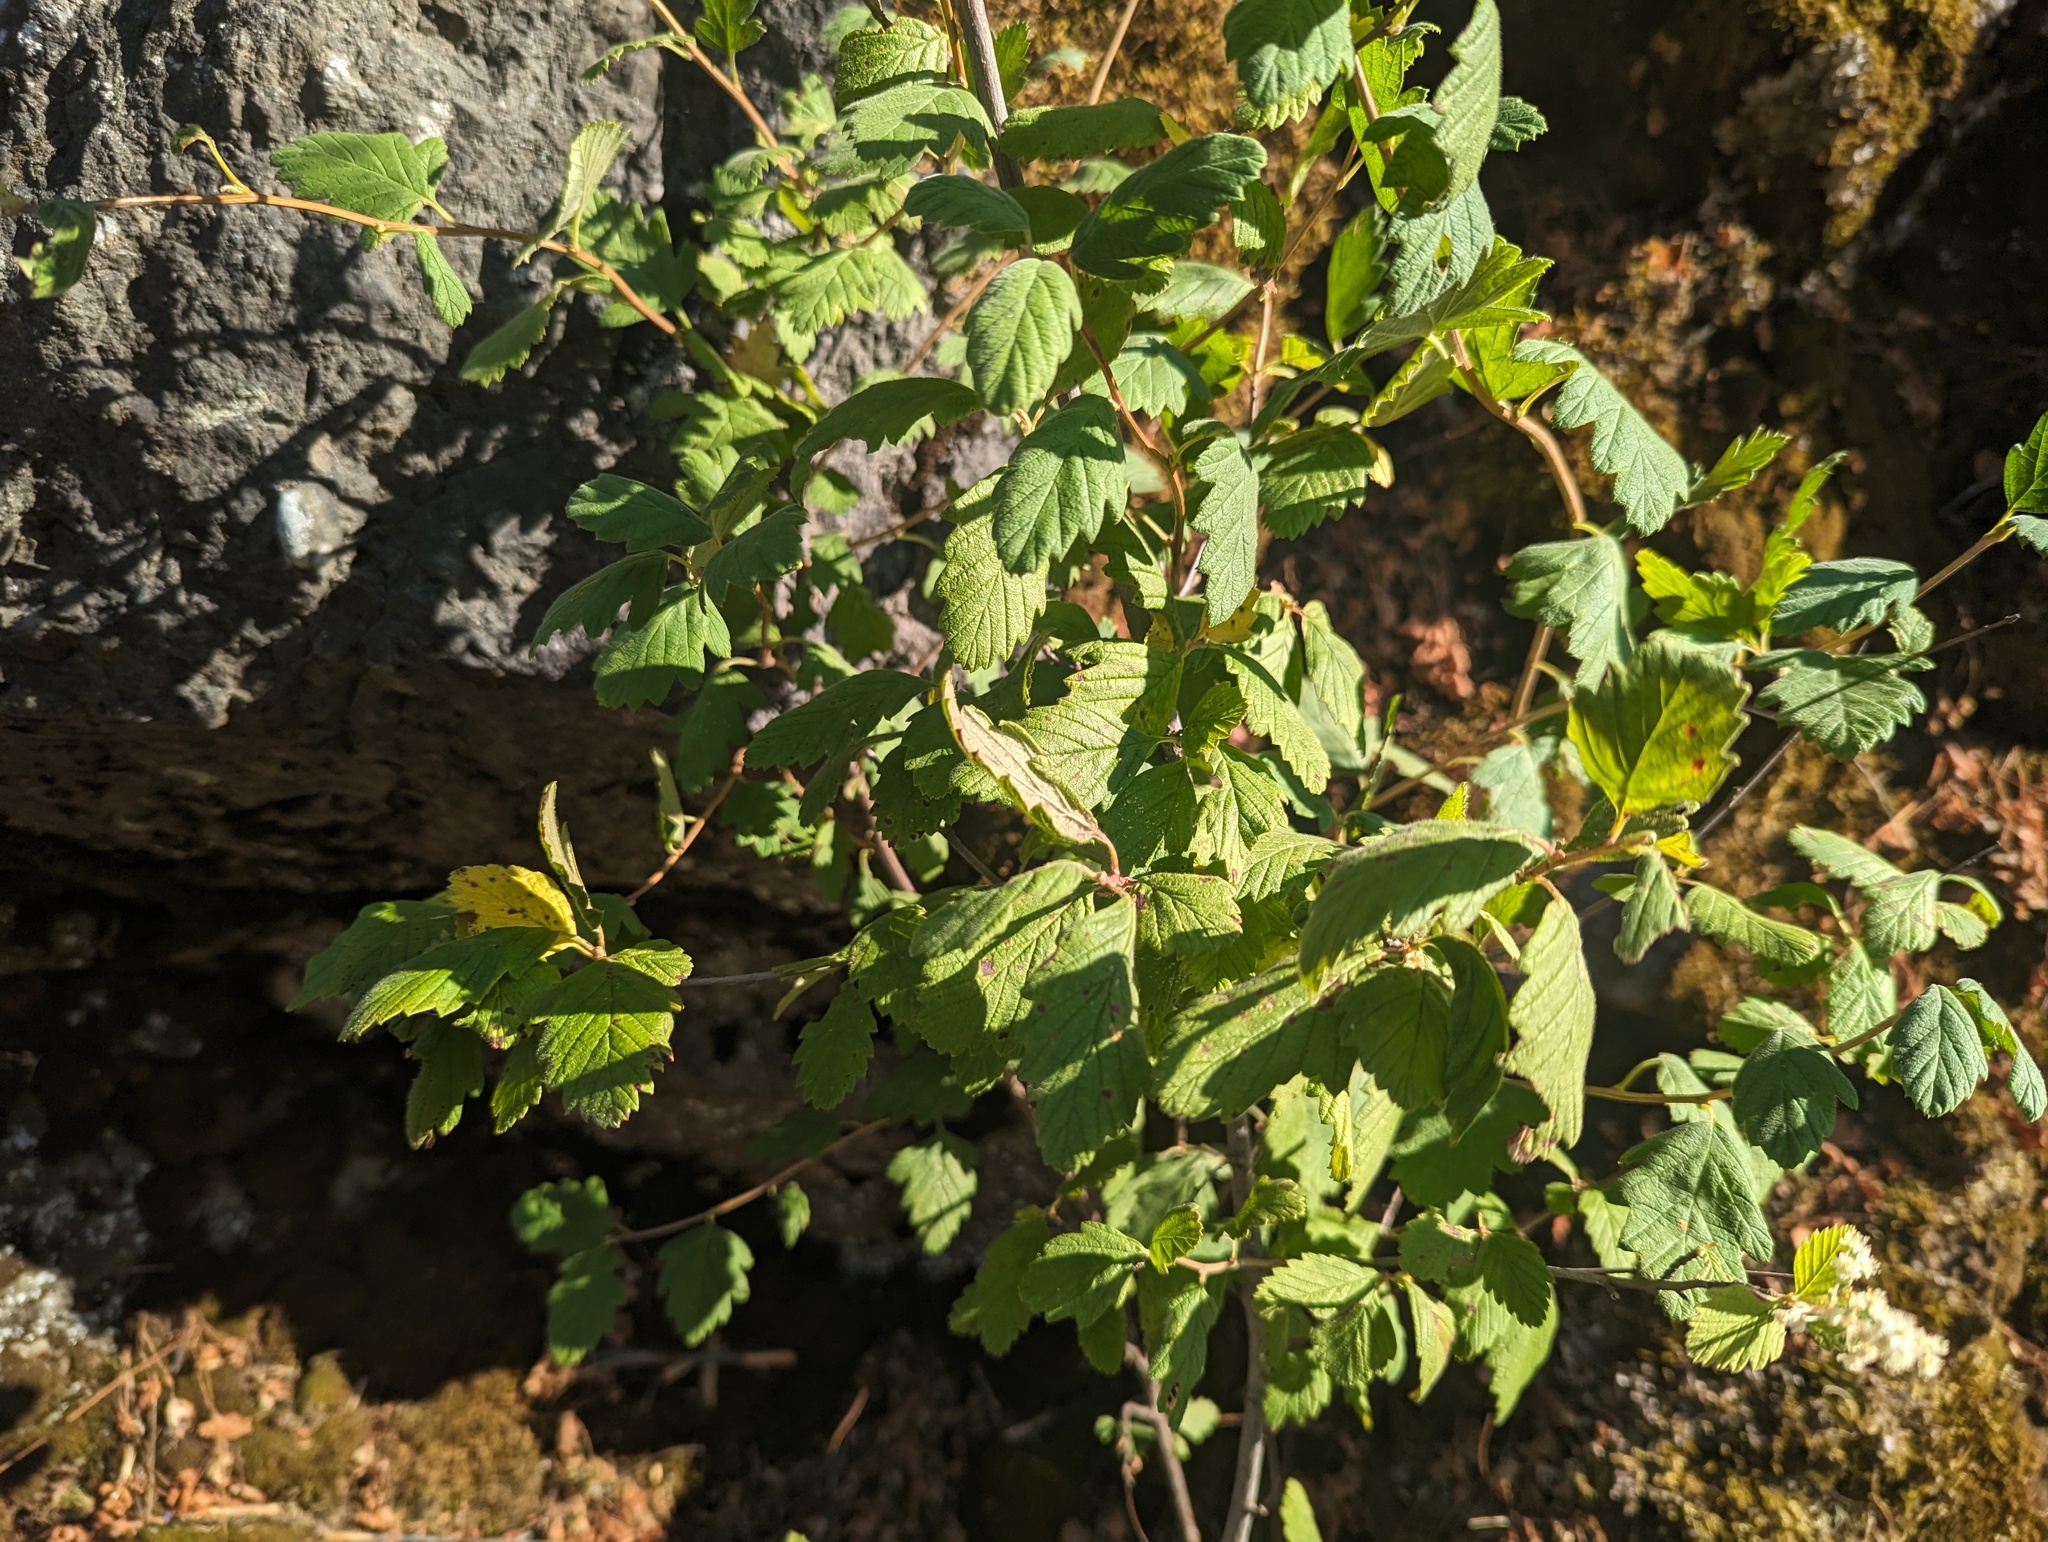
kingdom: Plantae
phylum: Tracheophyta
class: Magnoliopsida
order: Rosales
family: Rosaceae
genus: Holodiscus
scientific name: Holodiscus discolor
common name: Oceanspray
